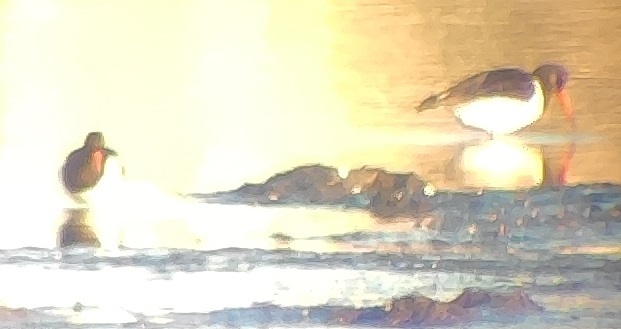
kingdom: Animalia
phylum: Chordata
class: Aves
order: Charadriiformes
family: Haematopodidae
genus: Haematopus
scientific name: Haematopus ostralegus
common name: Eurasian oystercatcher
